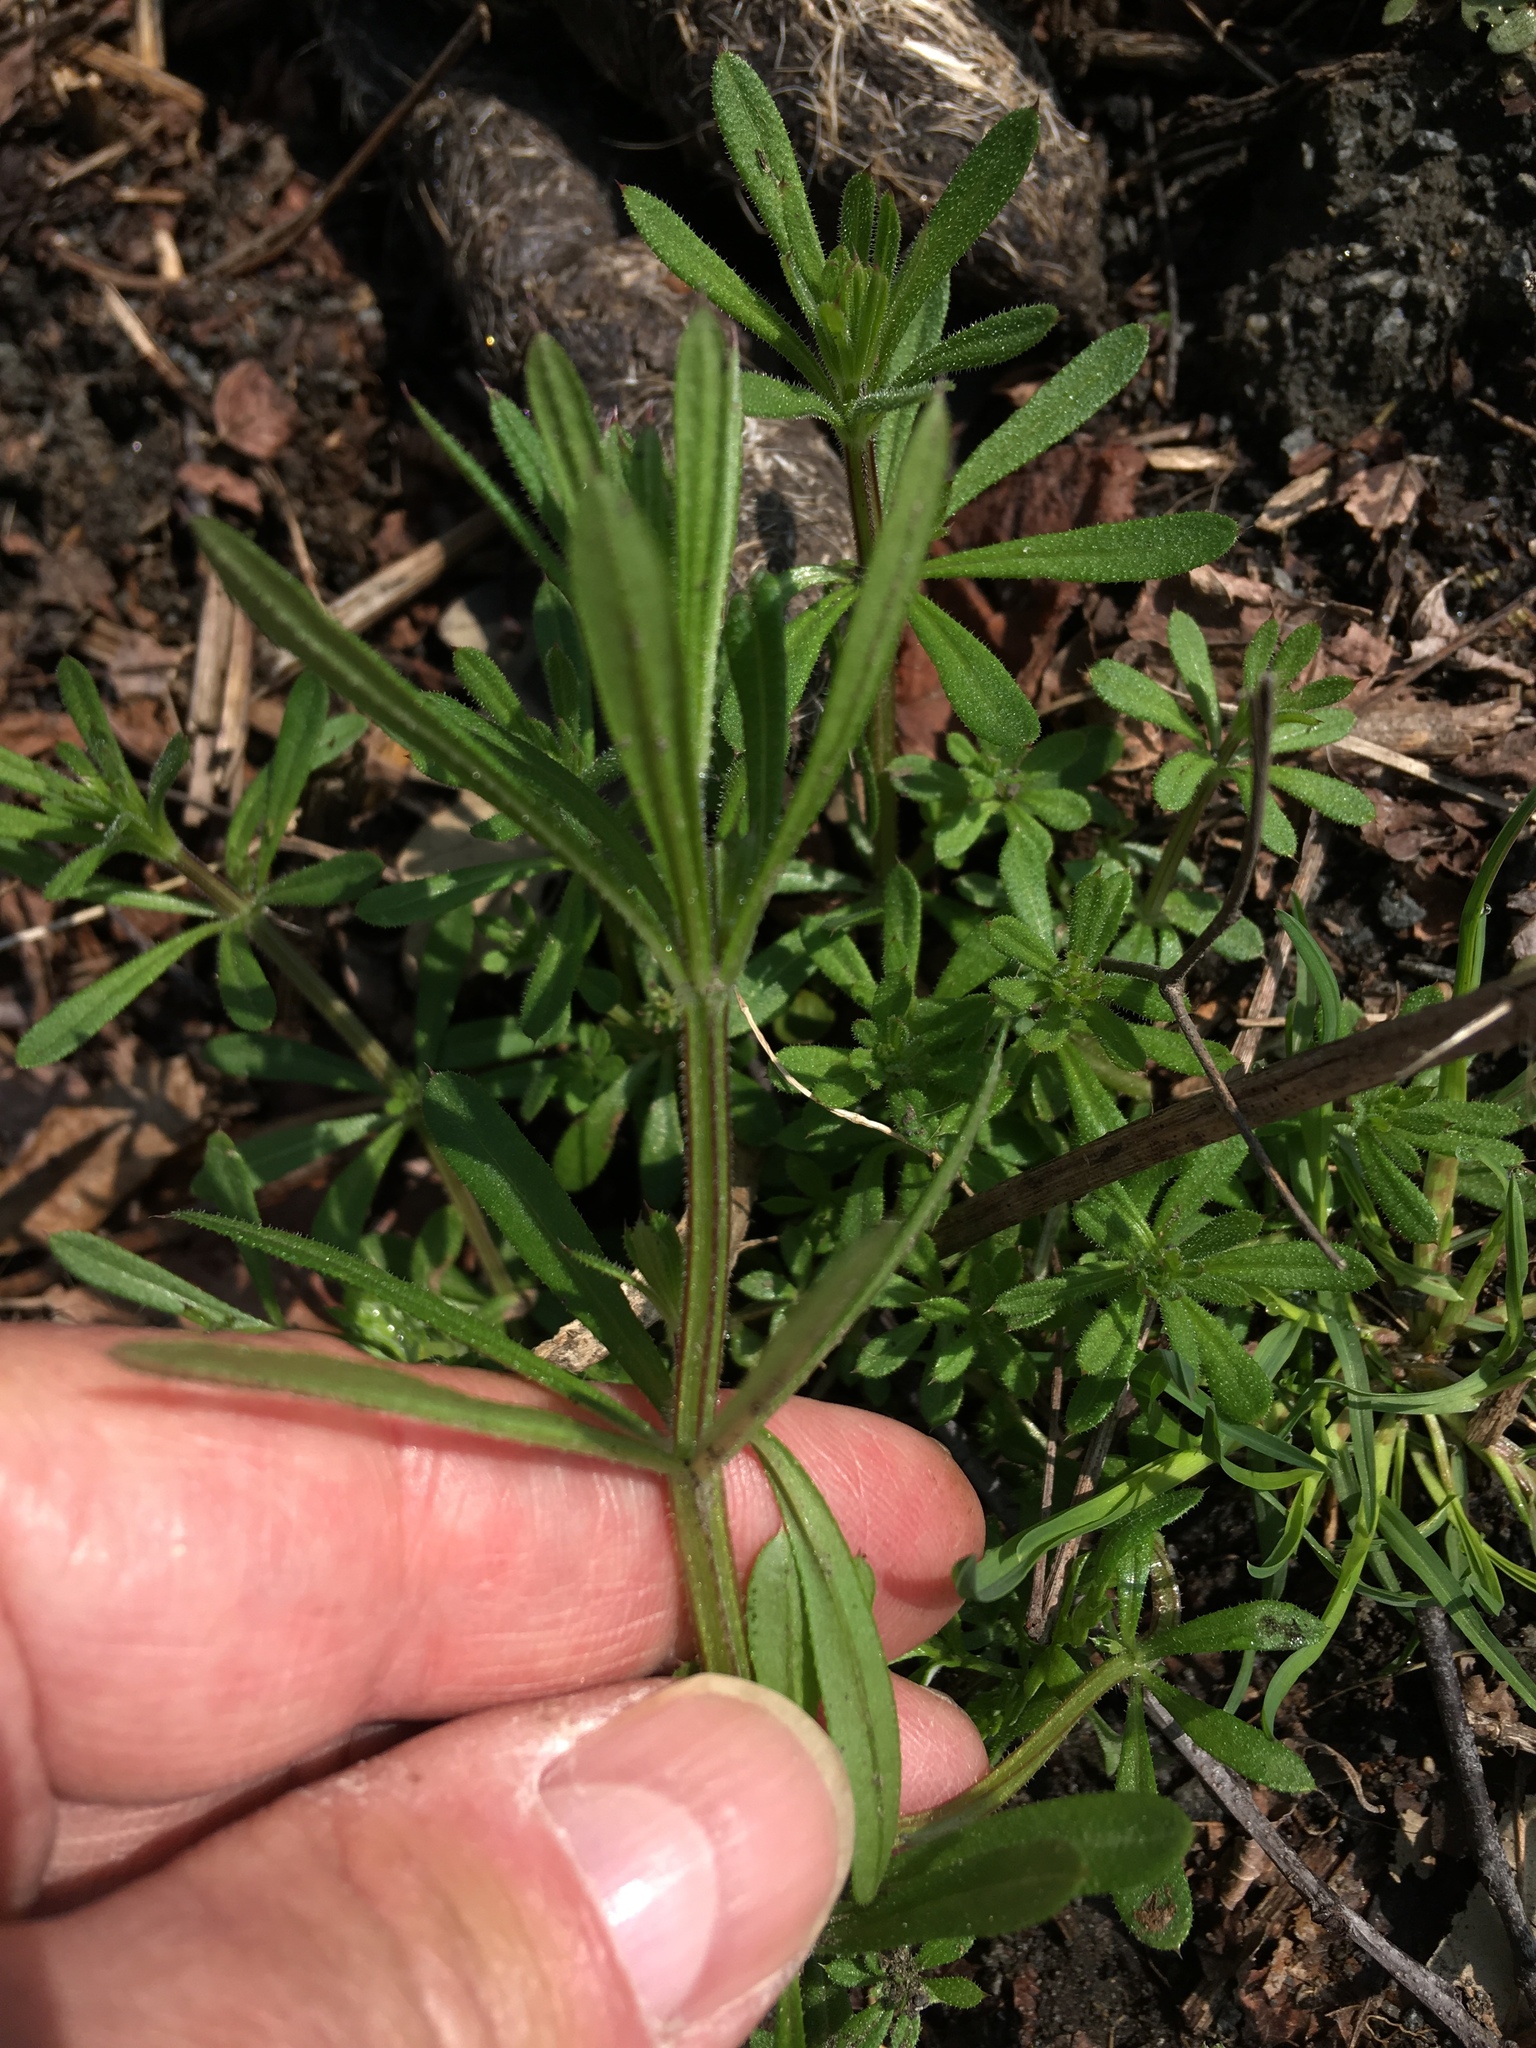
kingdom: Plantae
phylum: Tracheophyta
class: Magnoliopsida
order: Gentianales
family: Rubiaceae
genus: Galium
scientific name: Galium aparine
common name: Cleavers
